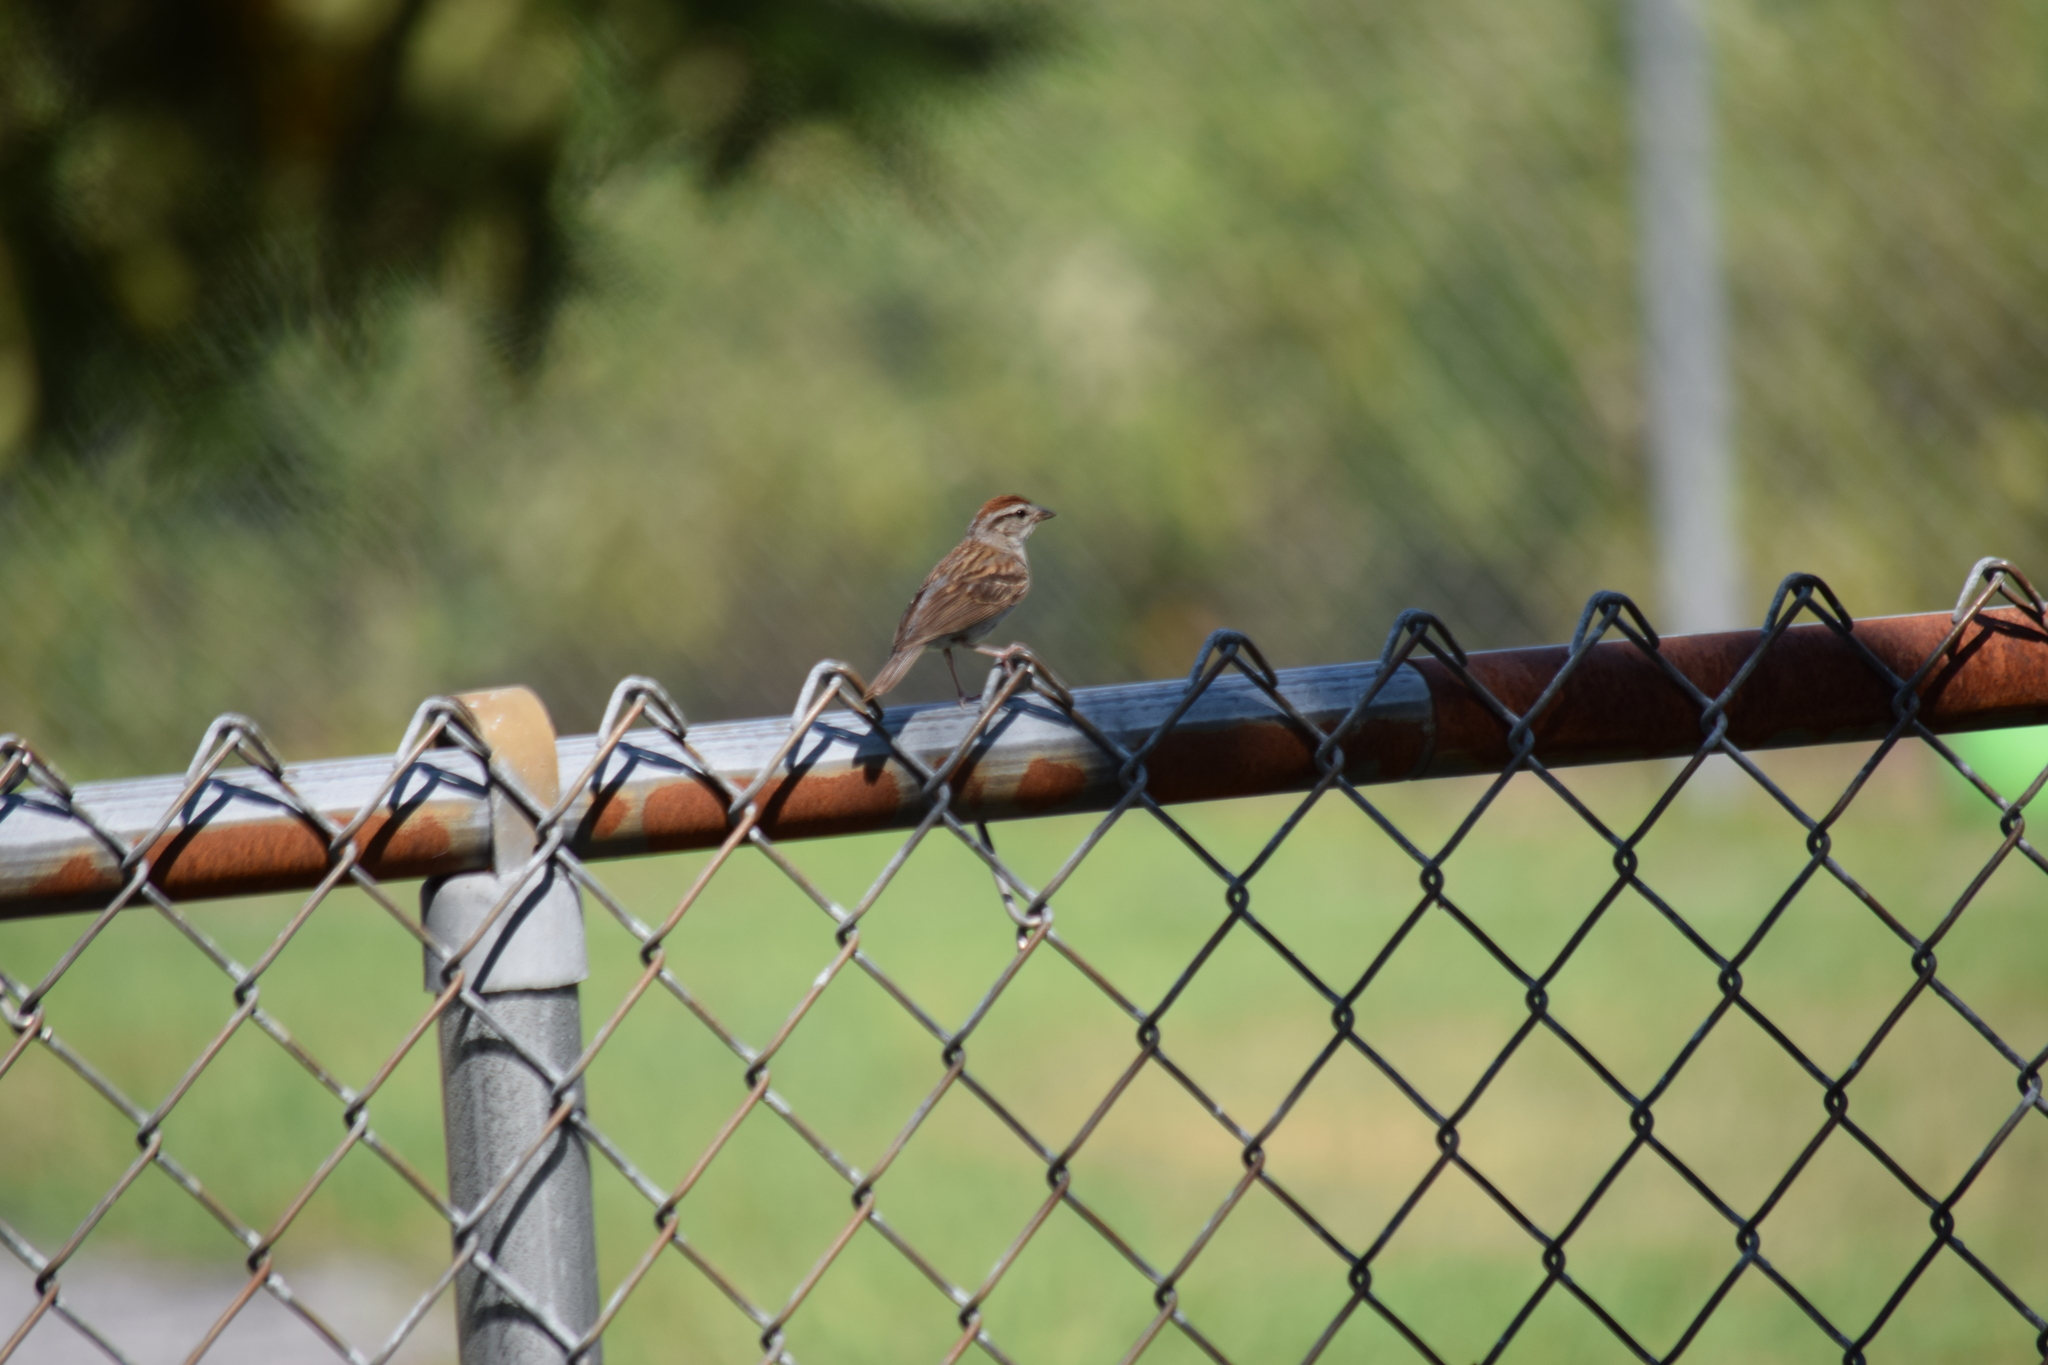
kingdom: Animalia
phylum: Chordata
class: Aves
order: Passeriformes
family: Passerellidae
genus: Spizella
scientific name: Spizella passerina
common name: Chipping sparrow
